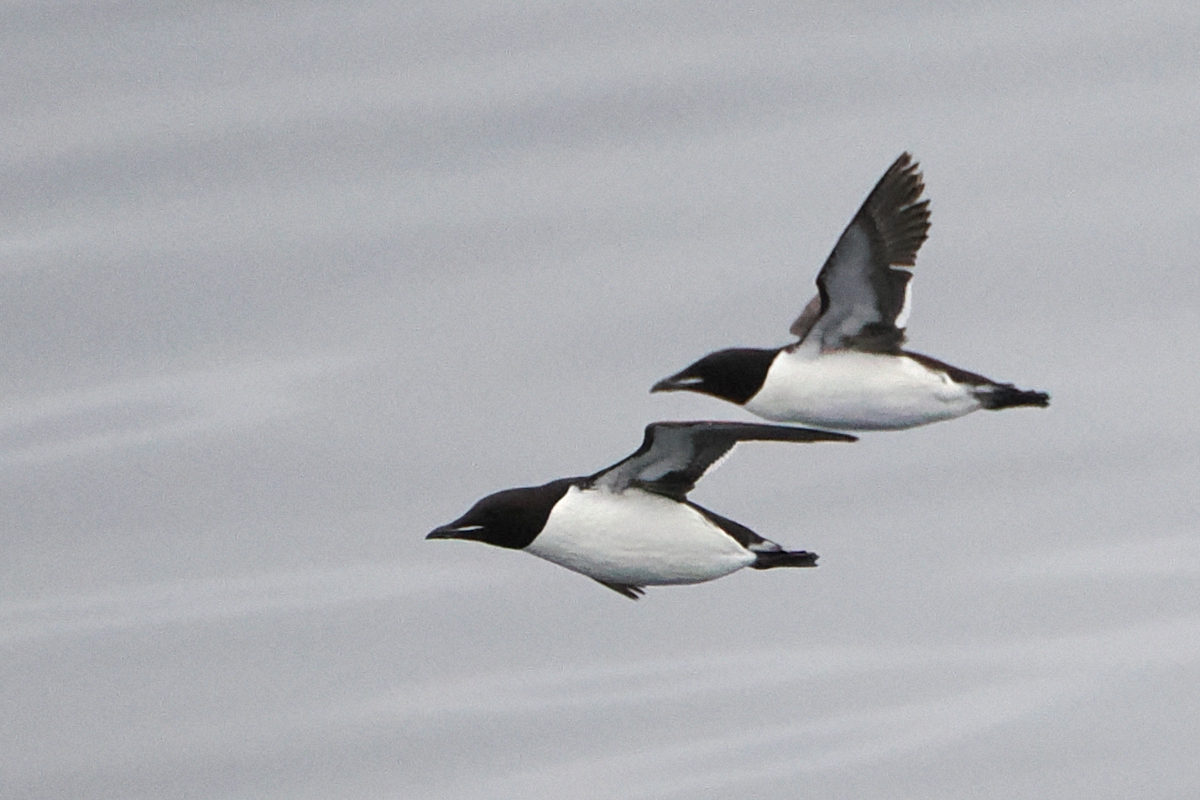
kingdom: Animalia
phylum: Chordata
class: Aves
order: Charadriiformes
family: Alcidae
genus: Uria
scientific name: Uria lomvia
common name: Thick-billed murre
